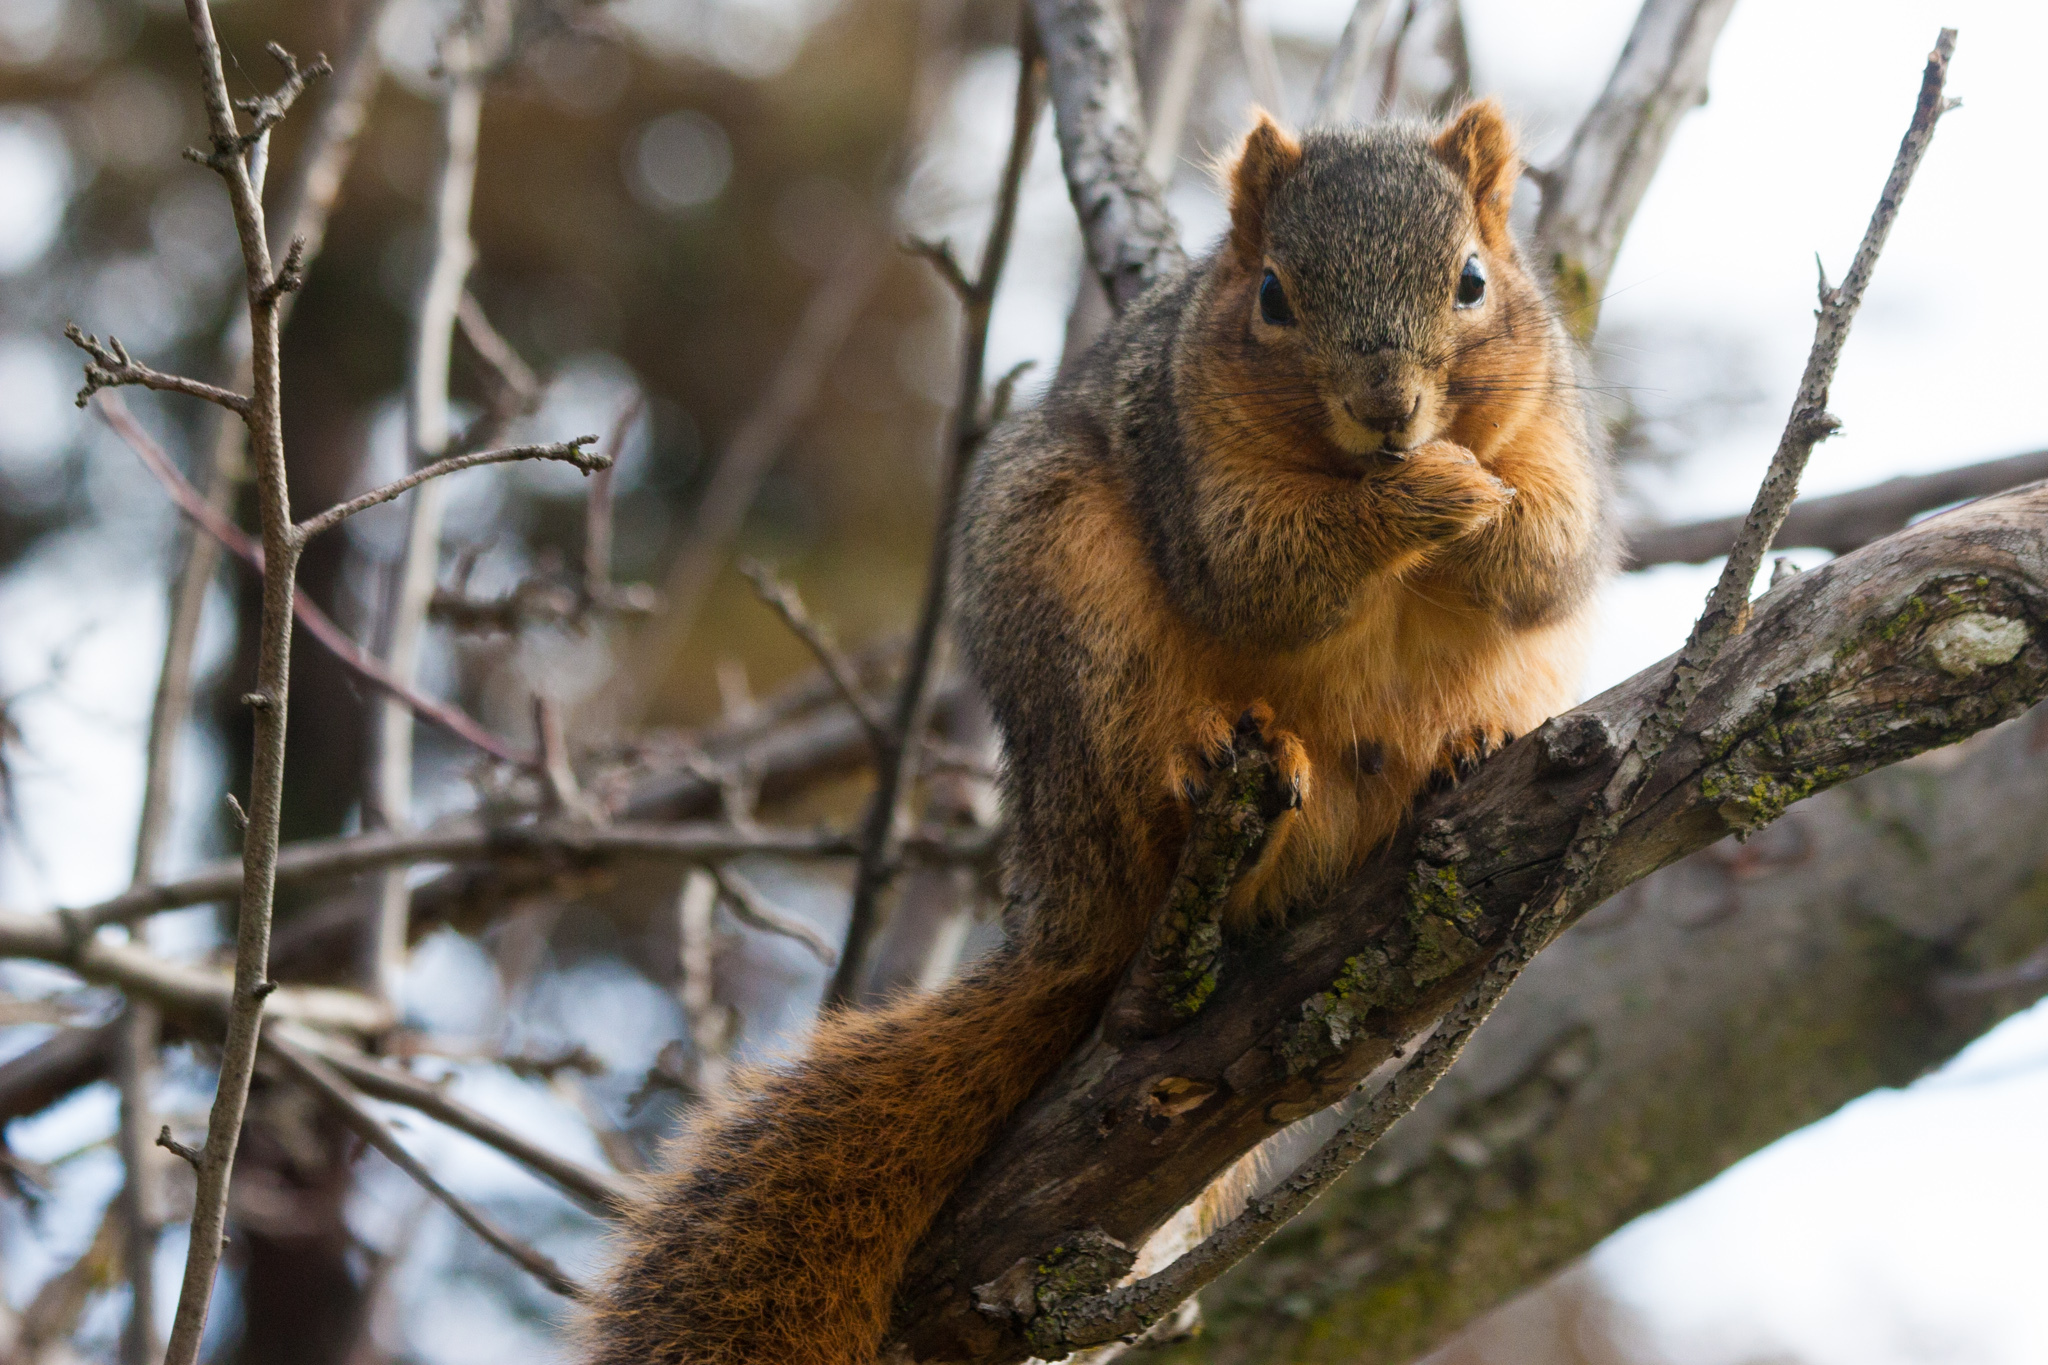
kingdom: Animalia
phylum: Chordata
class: Mammalia
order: Rodentia
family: Sciuridae
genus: Sciurus
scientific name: Sciurus niger
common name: Fox squirrel
